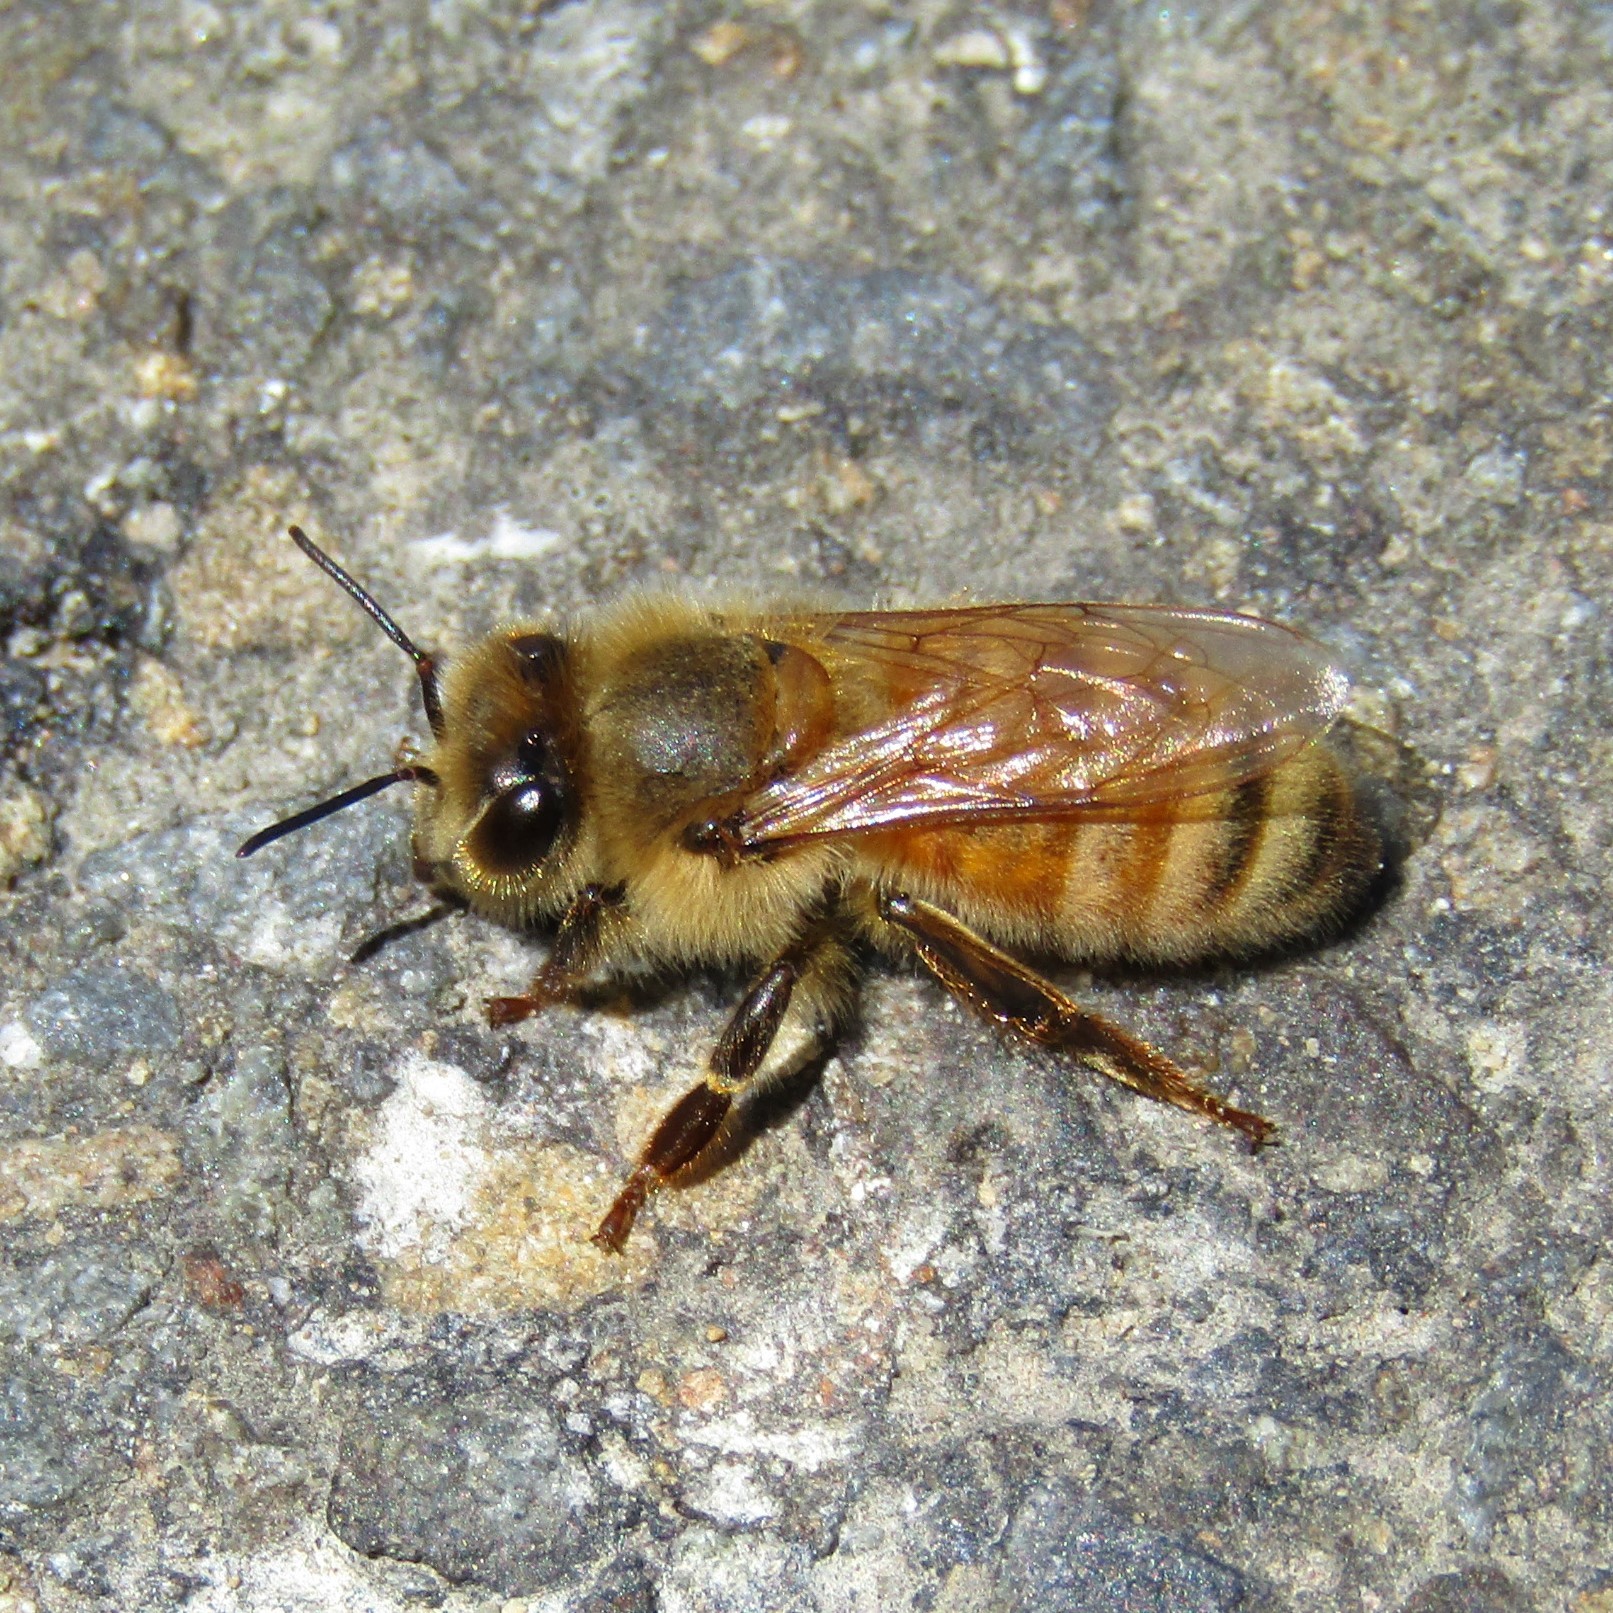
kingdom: Animalia
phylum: Arthropoda
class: Insecta
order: Hymenoptera
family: Apidae
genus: Apis
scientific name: Apis mellifera
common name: Honey bee
